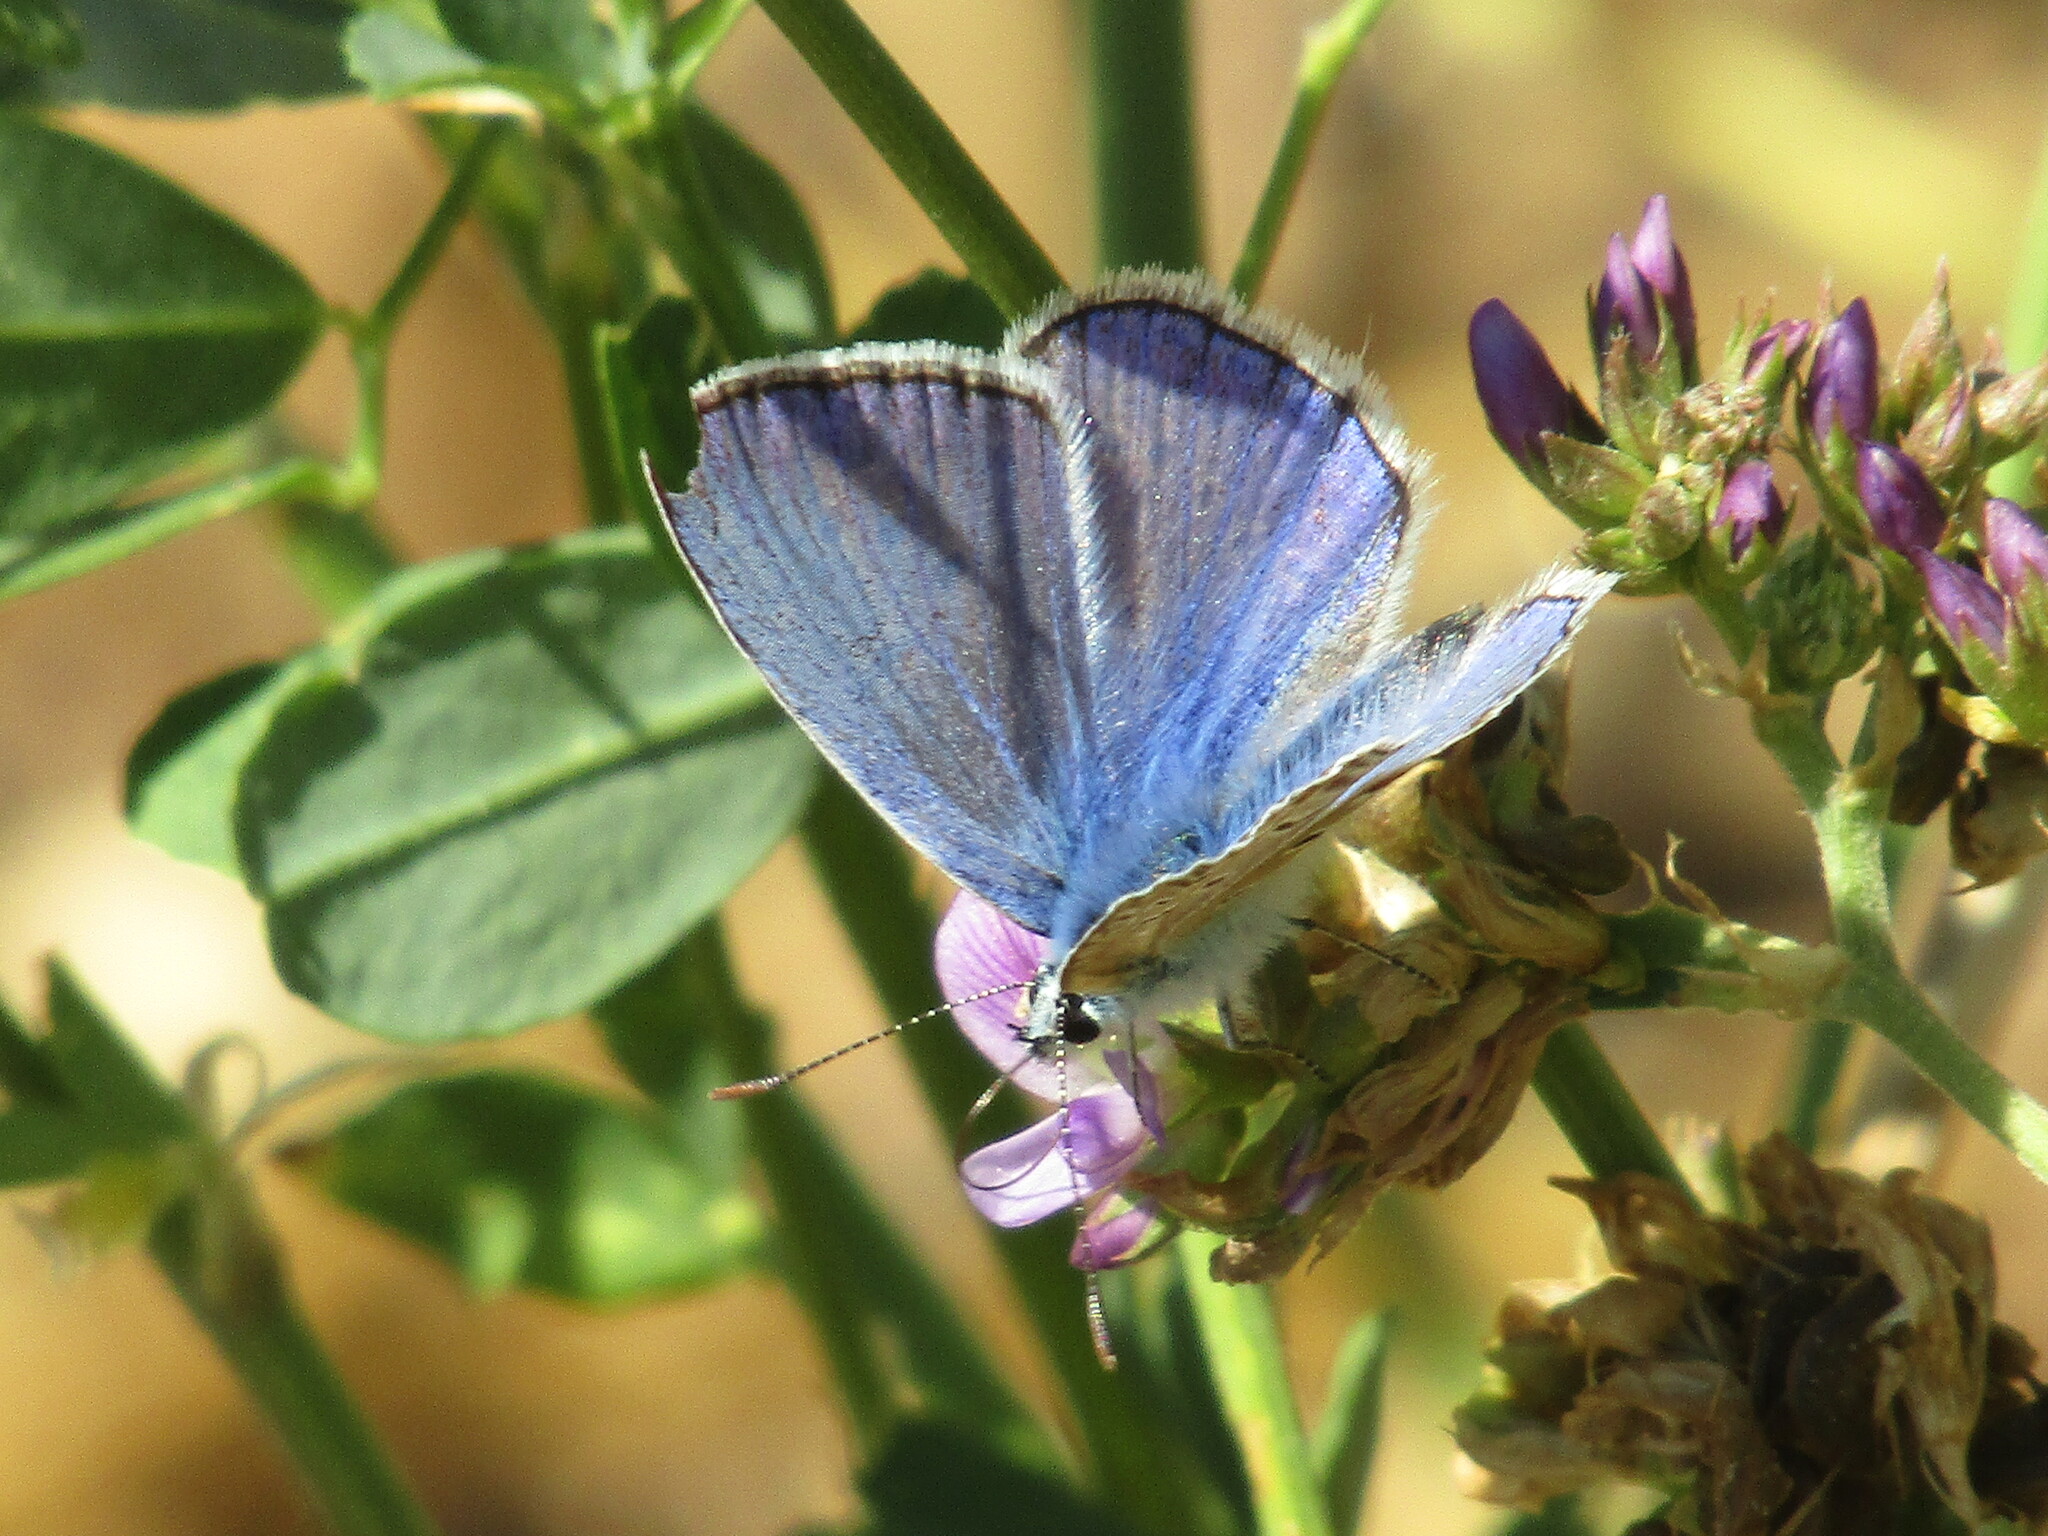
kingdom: Animalia
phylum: Arthropoda
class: Insecta
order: Lepidoptera
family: Lycaenidae
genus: Polyommatus
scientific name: Polyommatus icarus
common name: Common blue
